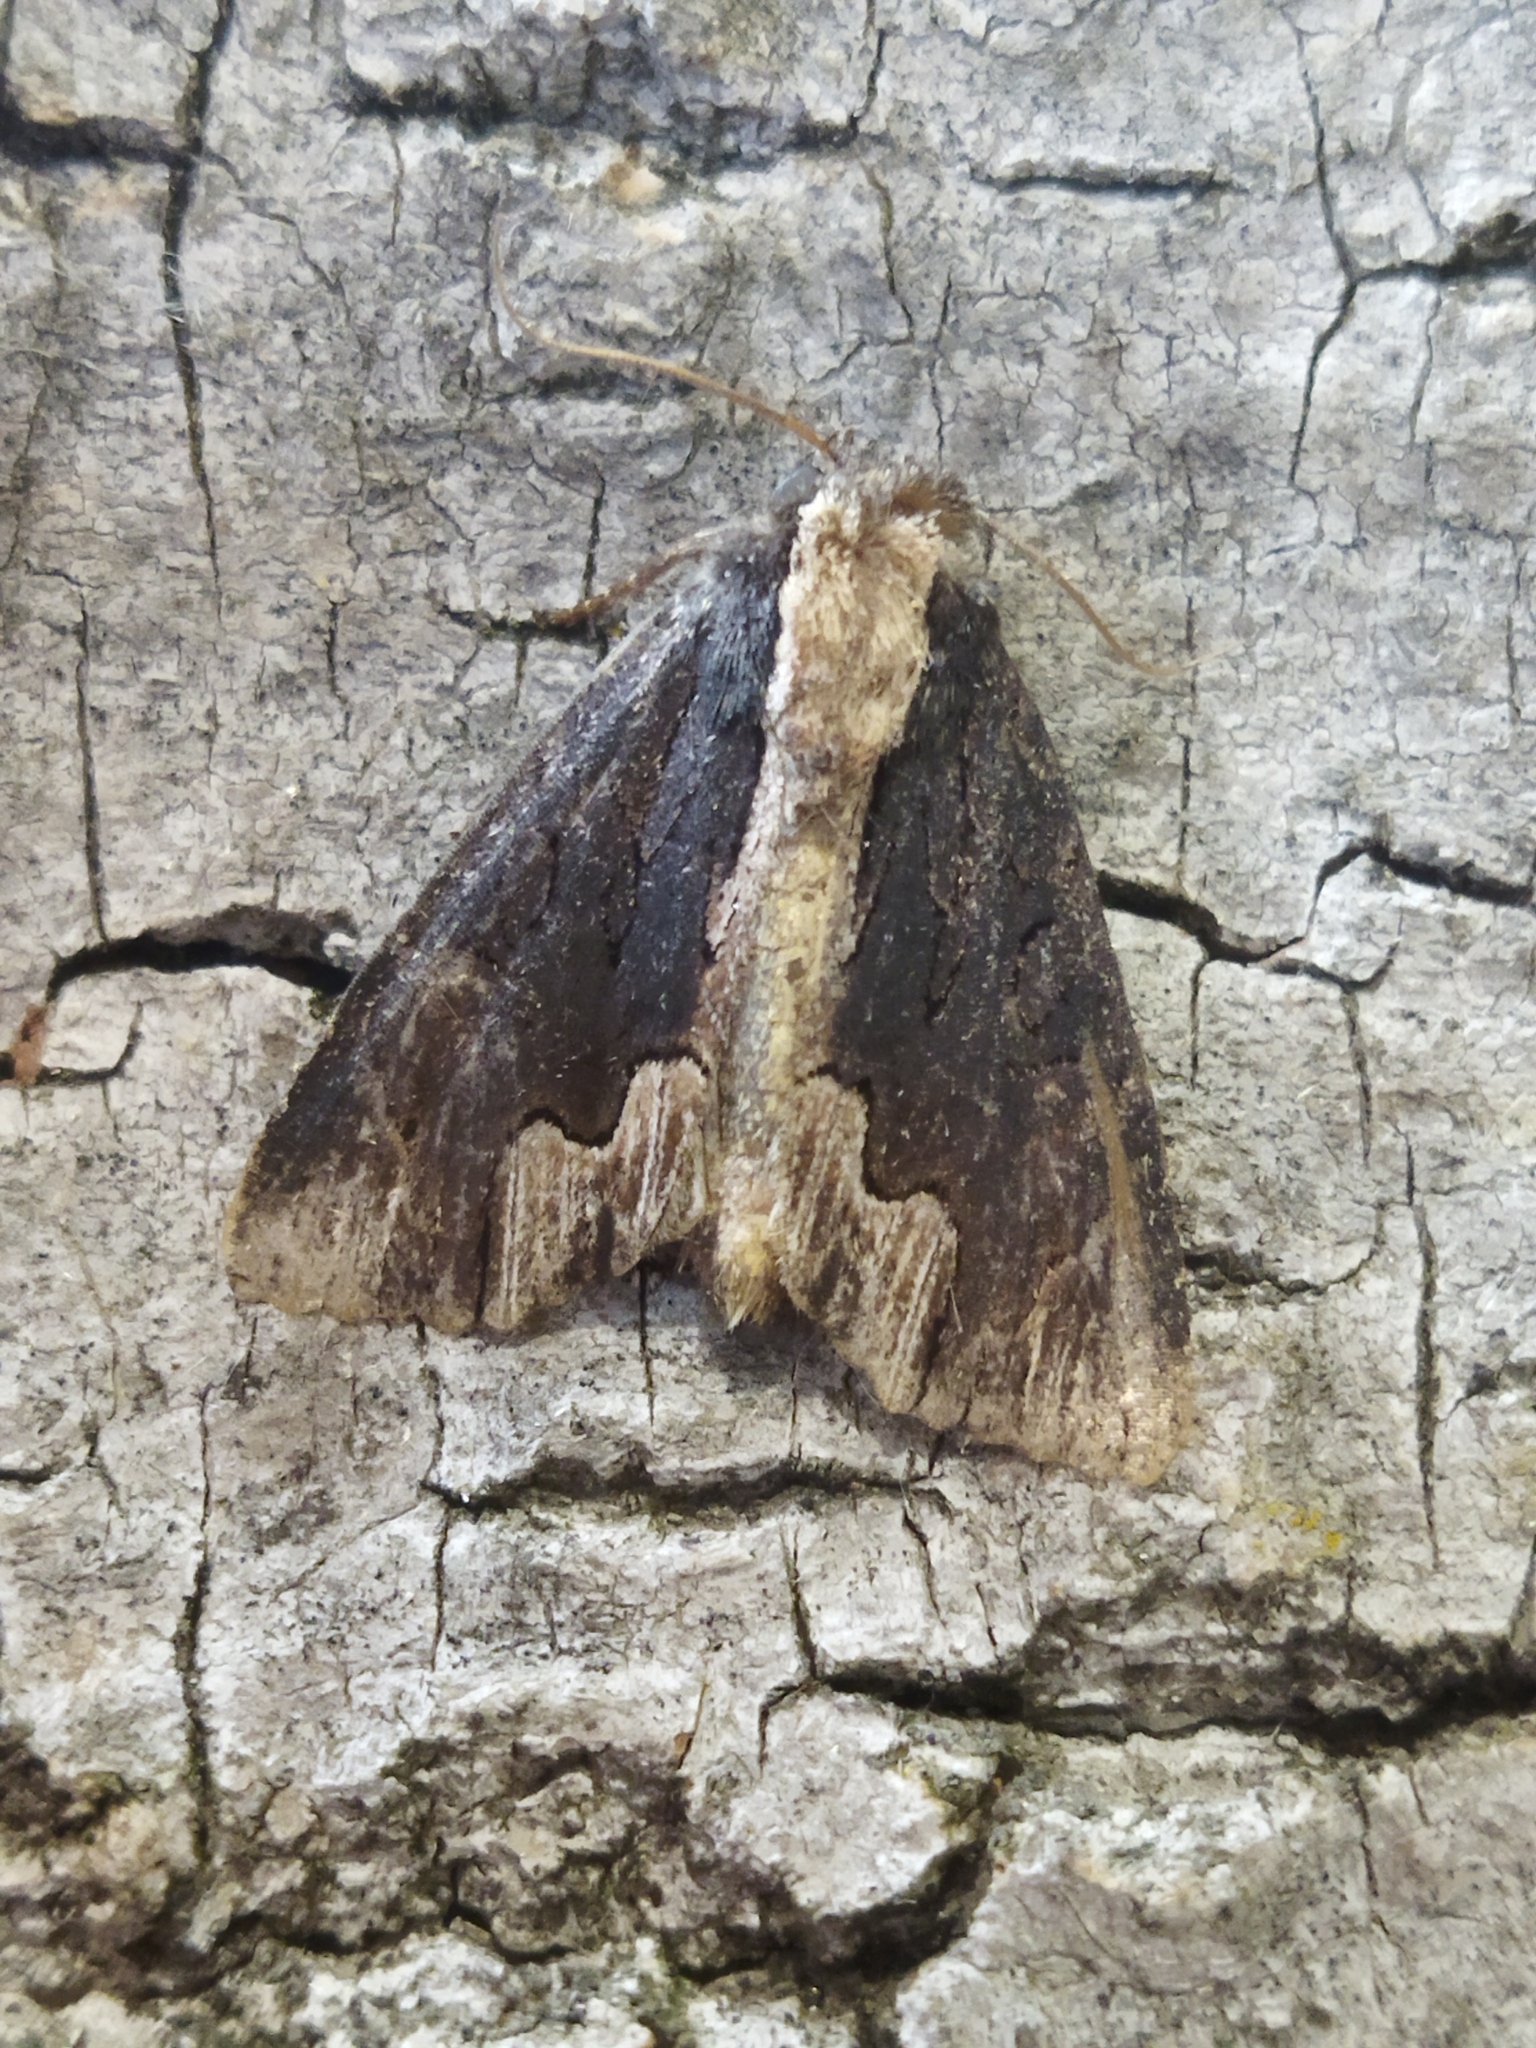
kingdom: Animalia
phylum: Arthropoda
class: Insecta
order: Lepidoptera
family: Noctuidae
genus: Dypterygia
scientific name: Dypterygia scabriuscula
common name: Bird's wing
